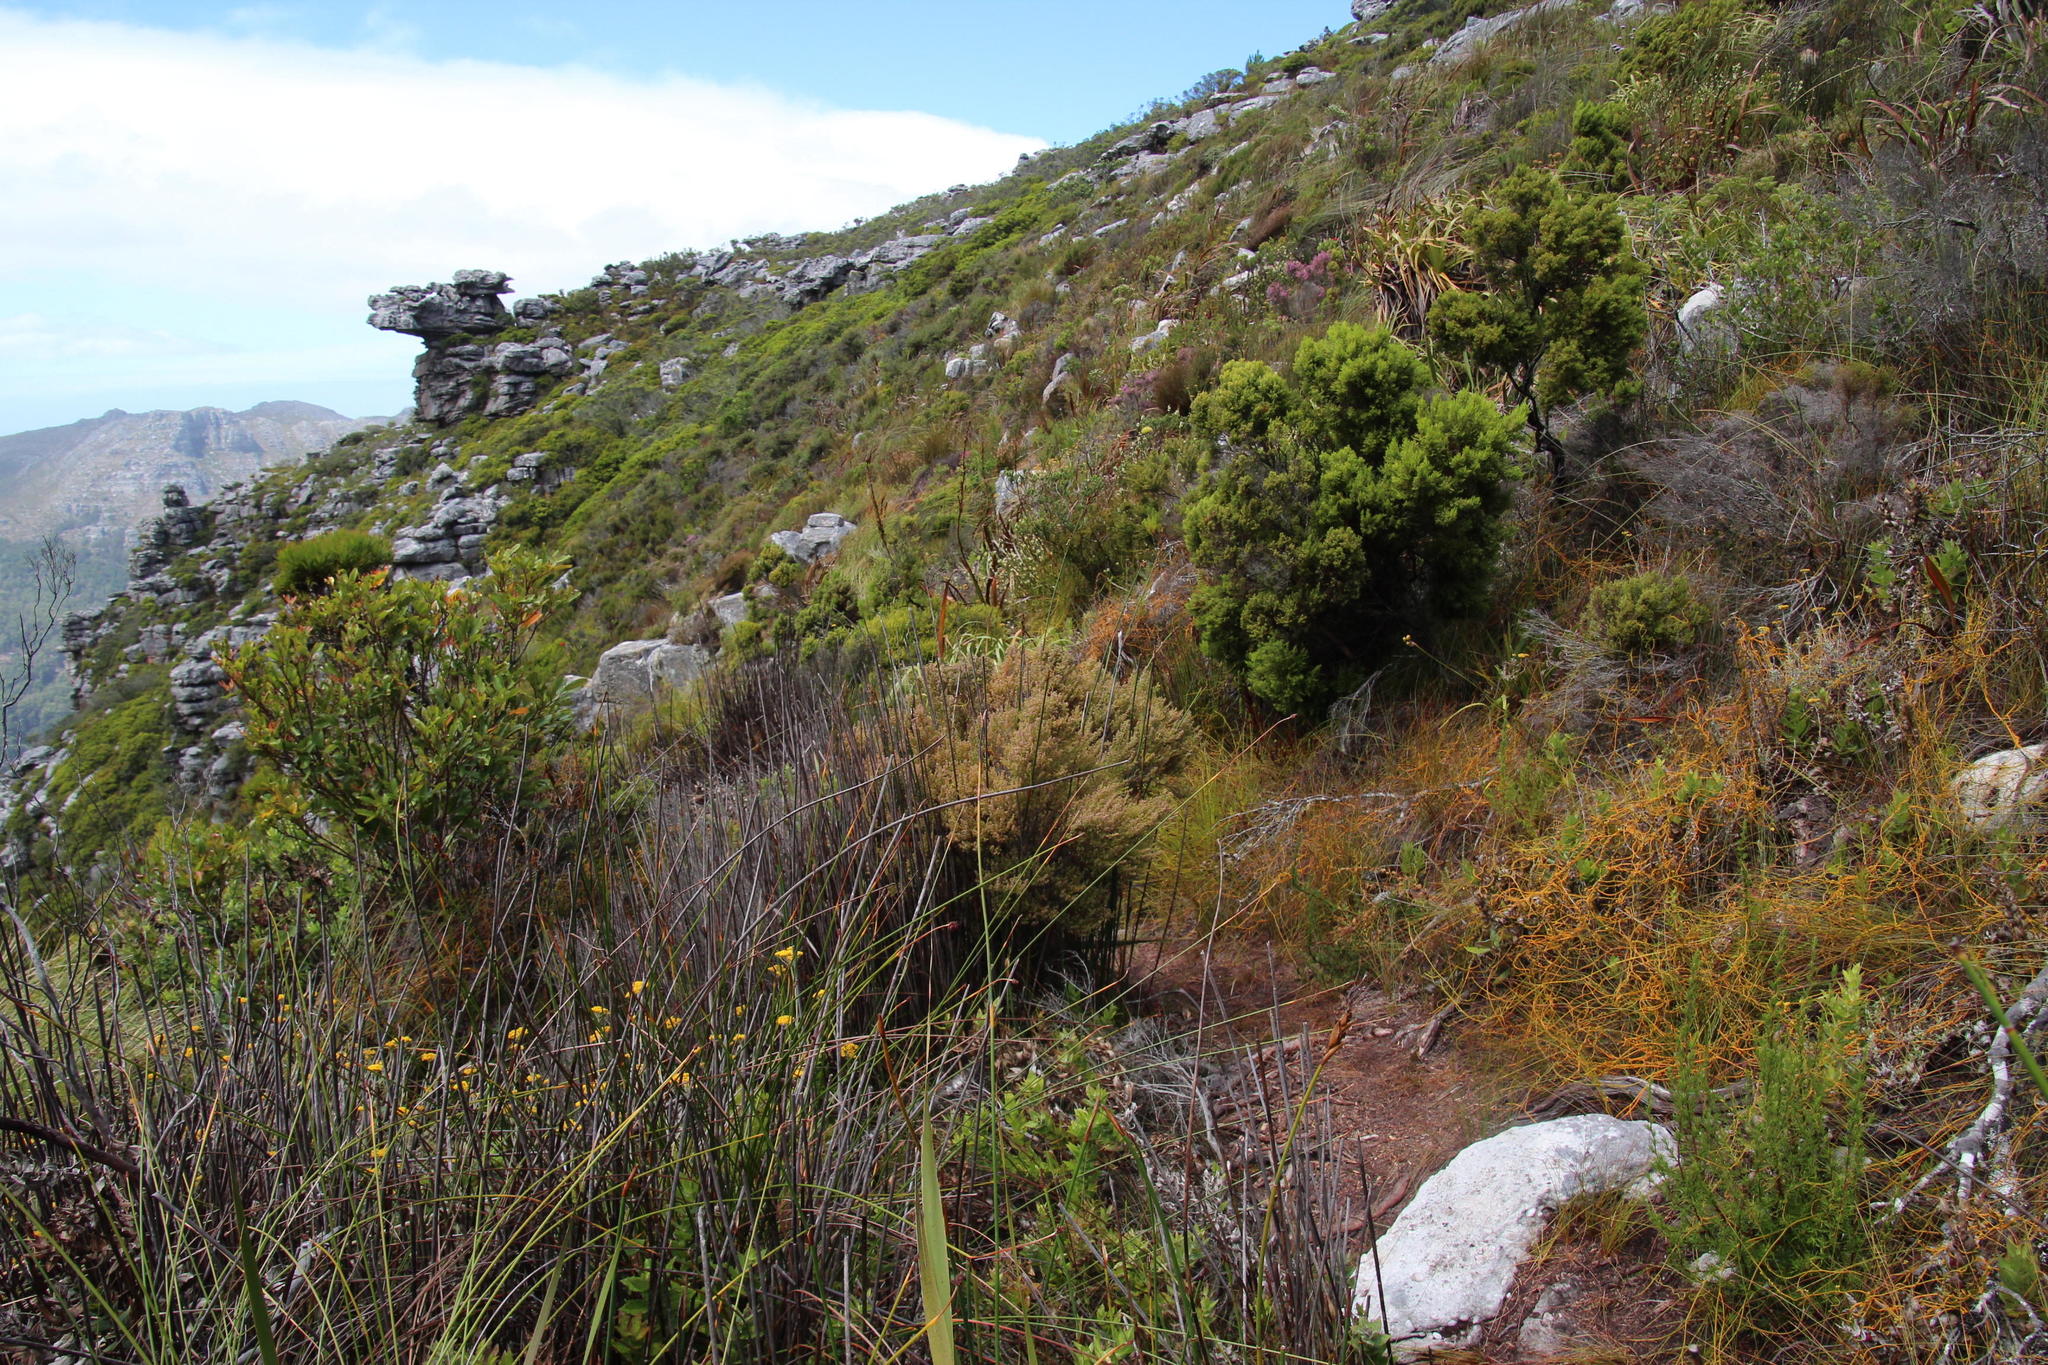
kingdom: Plantae
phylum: Tracheophyta
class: Magnoliopsida
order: Ericales
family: Ericaceae
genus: Erica
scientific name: Erica hispidula
